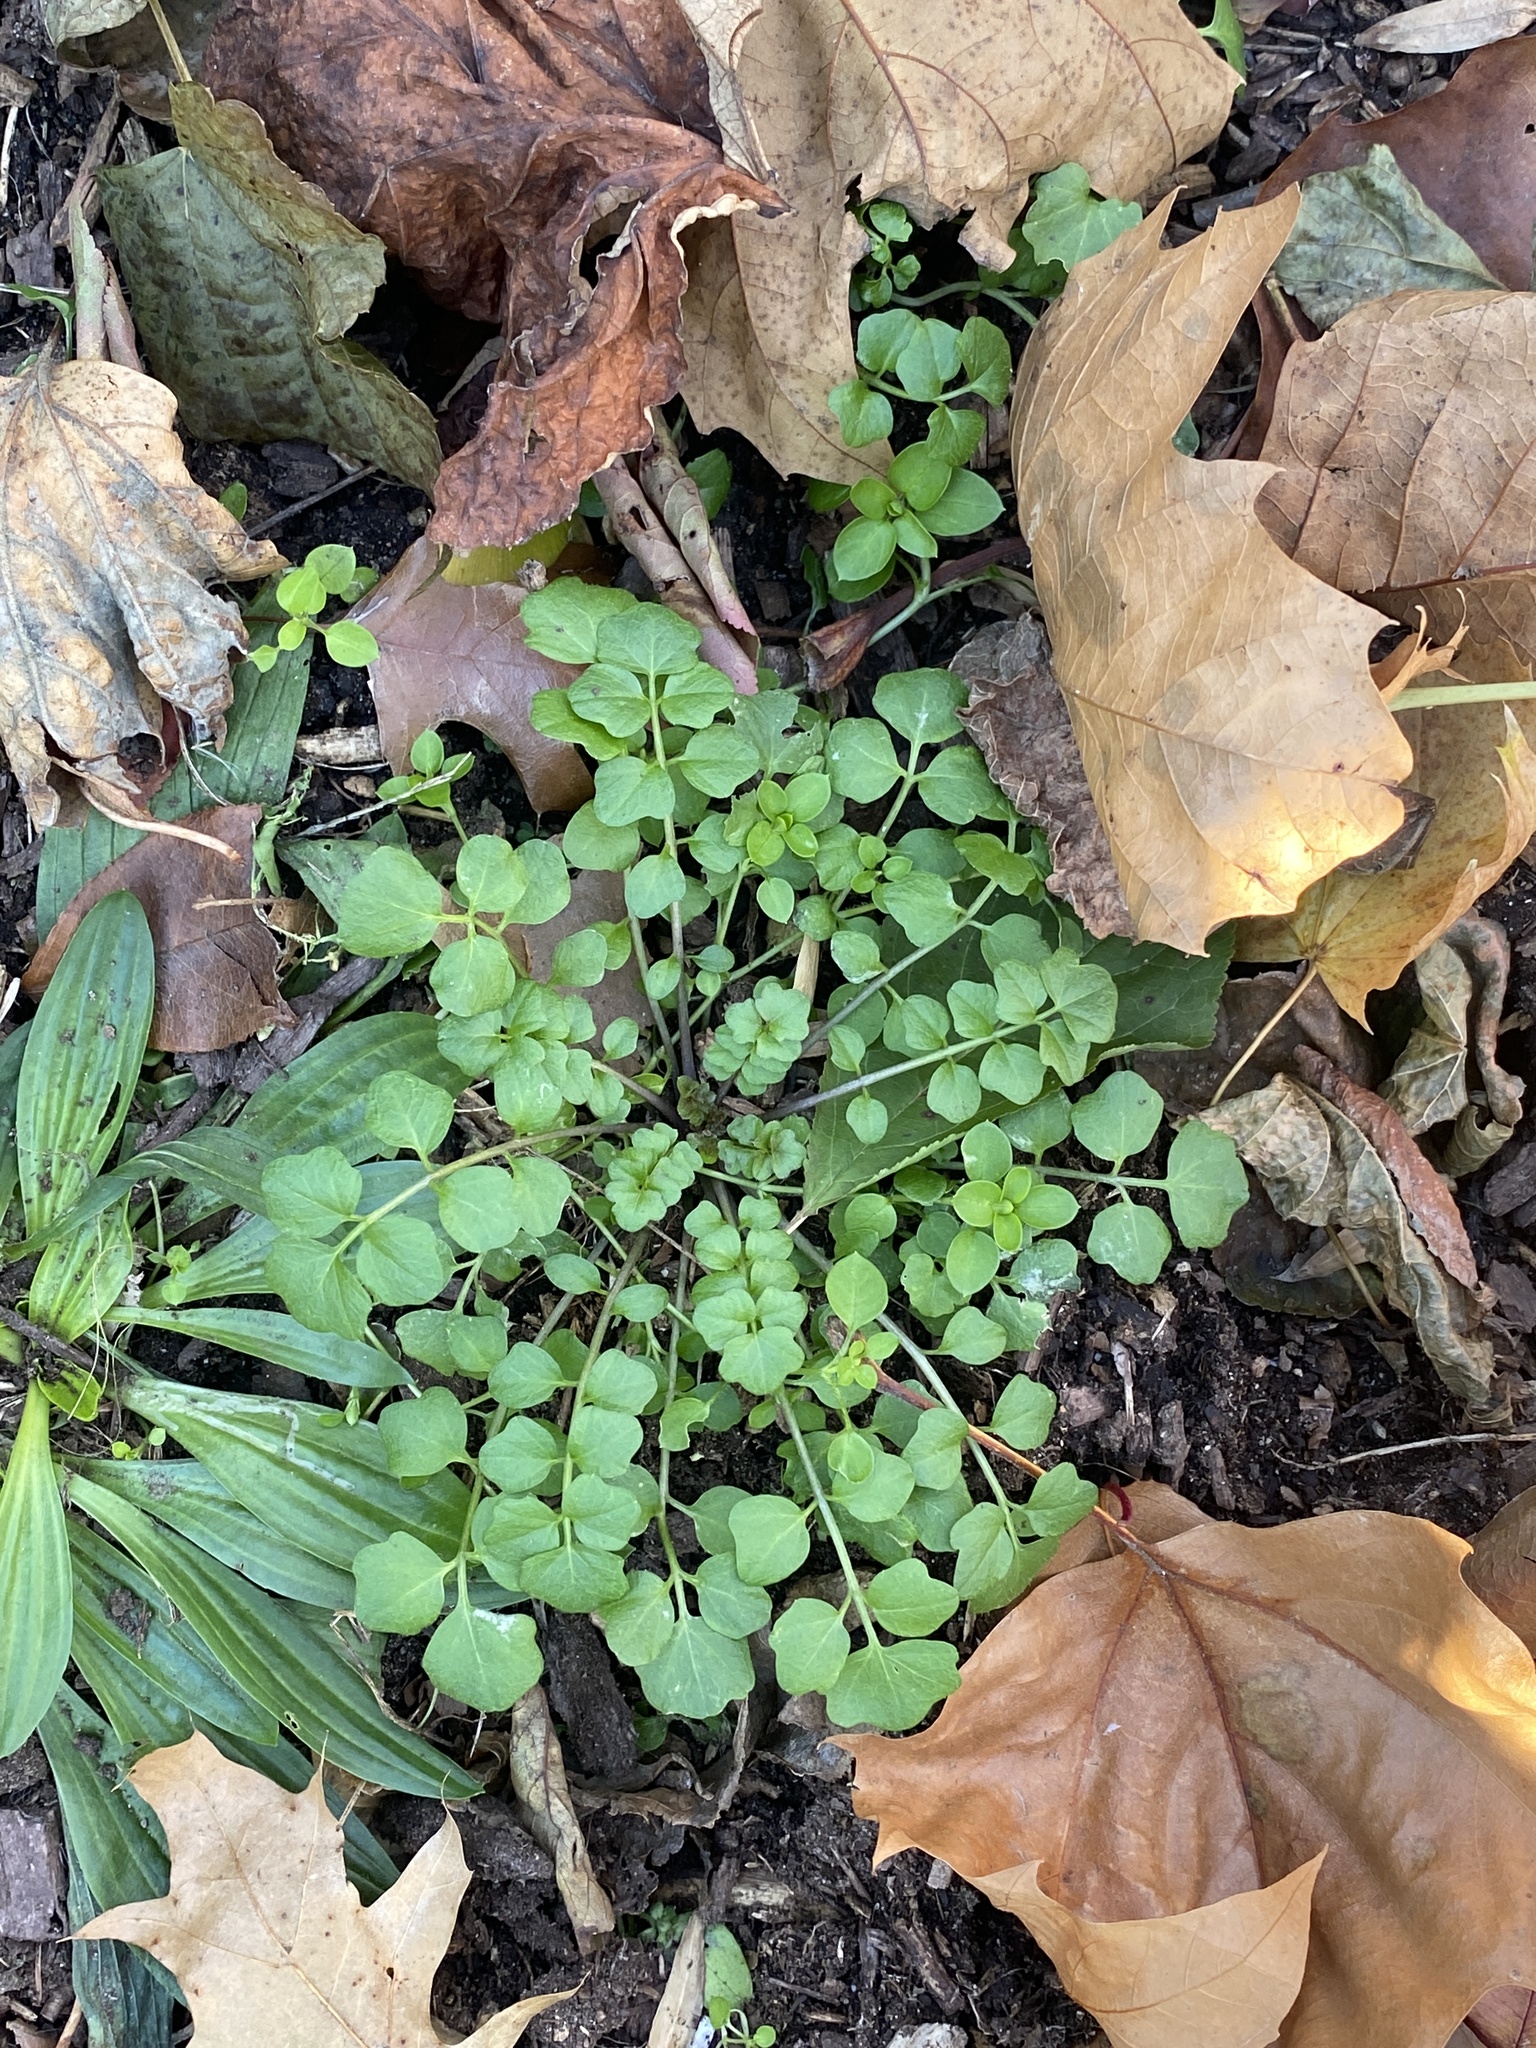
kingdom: Plantae
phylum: Tracheophyta
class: Magnoliopsida
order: Brassicales
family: Brassicaceae
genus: Cardamine
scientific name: Cardamine hirsuta
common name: Hairy bittercress
